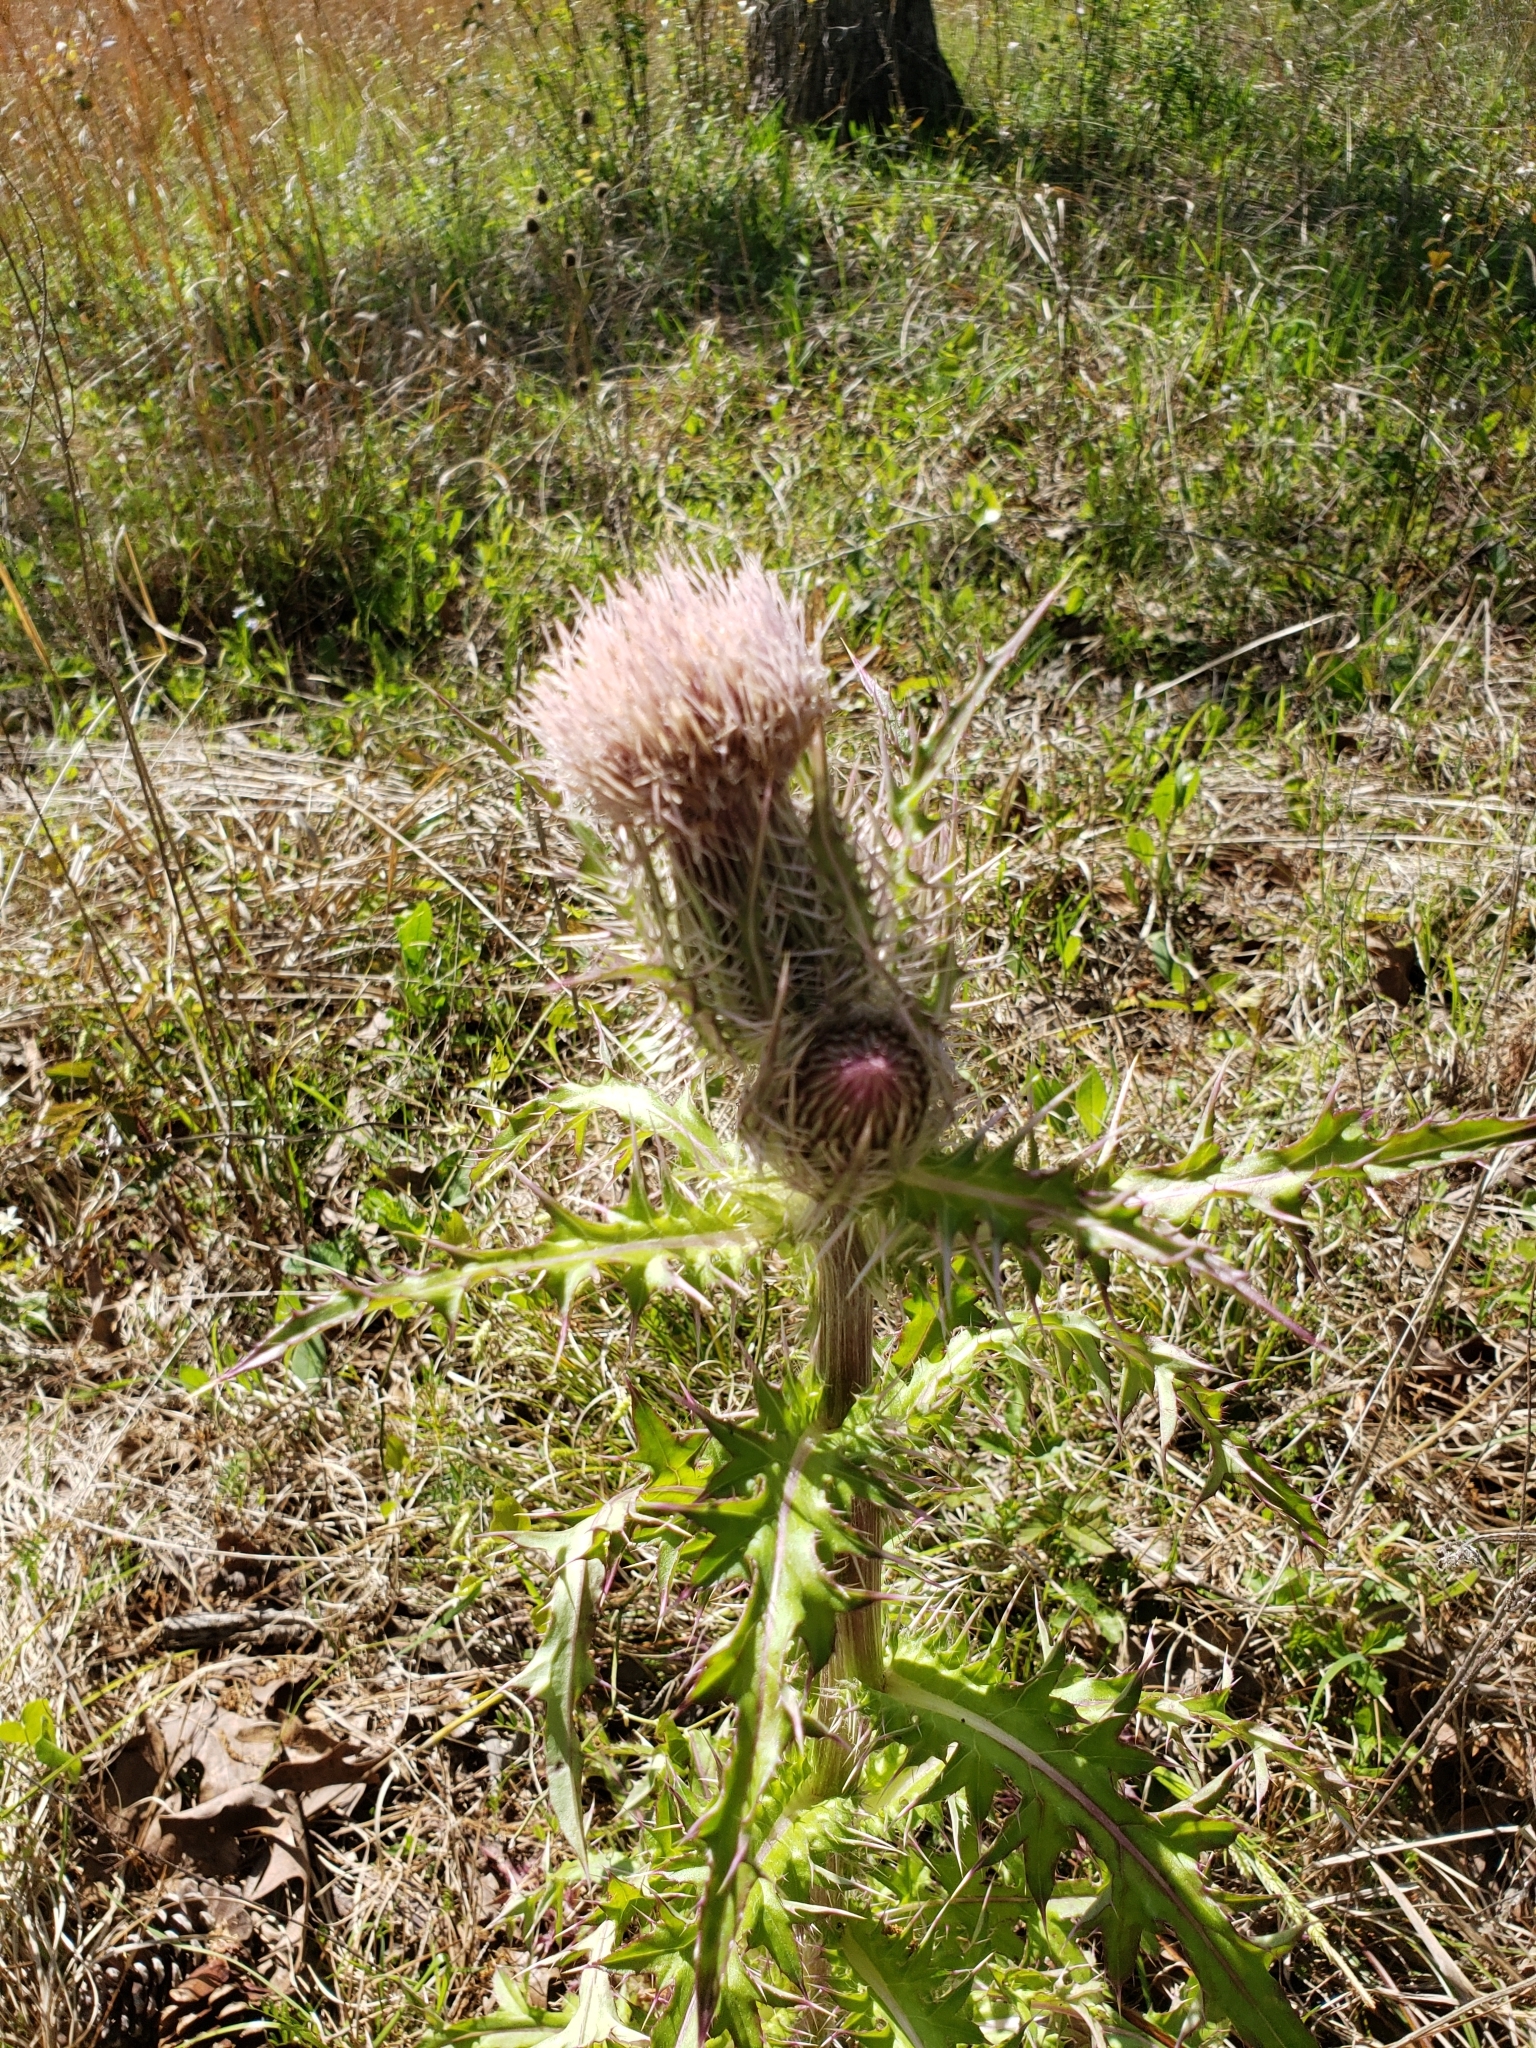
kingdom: Plantae
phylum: Tracheophyta
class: Magnoliopsida
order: Asterales
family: Asteraceae
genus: Cirsium
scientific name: Cirsium horridulum
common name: Bristly thistle
